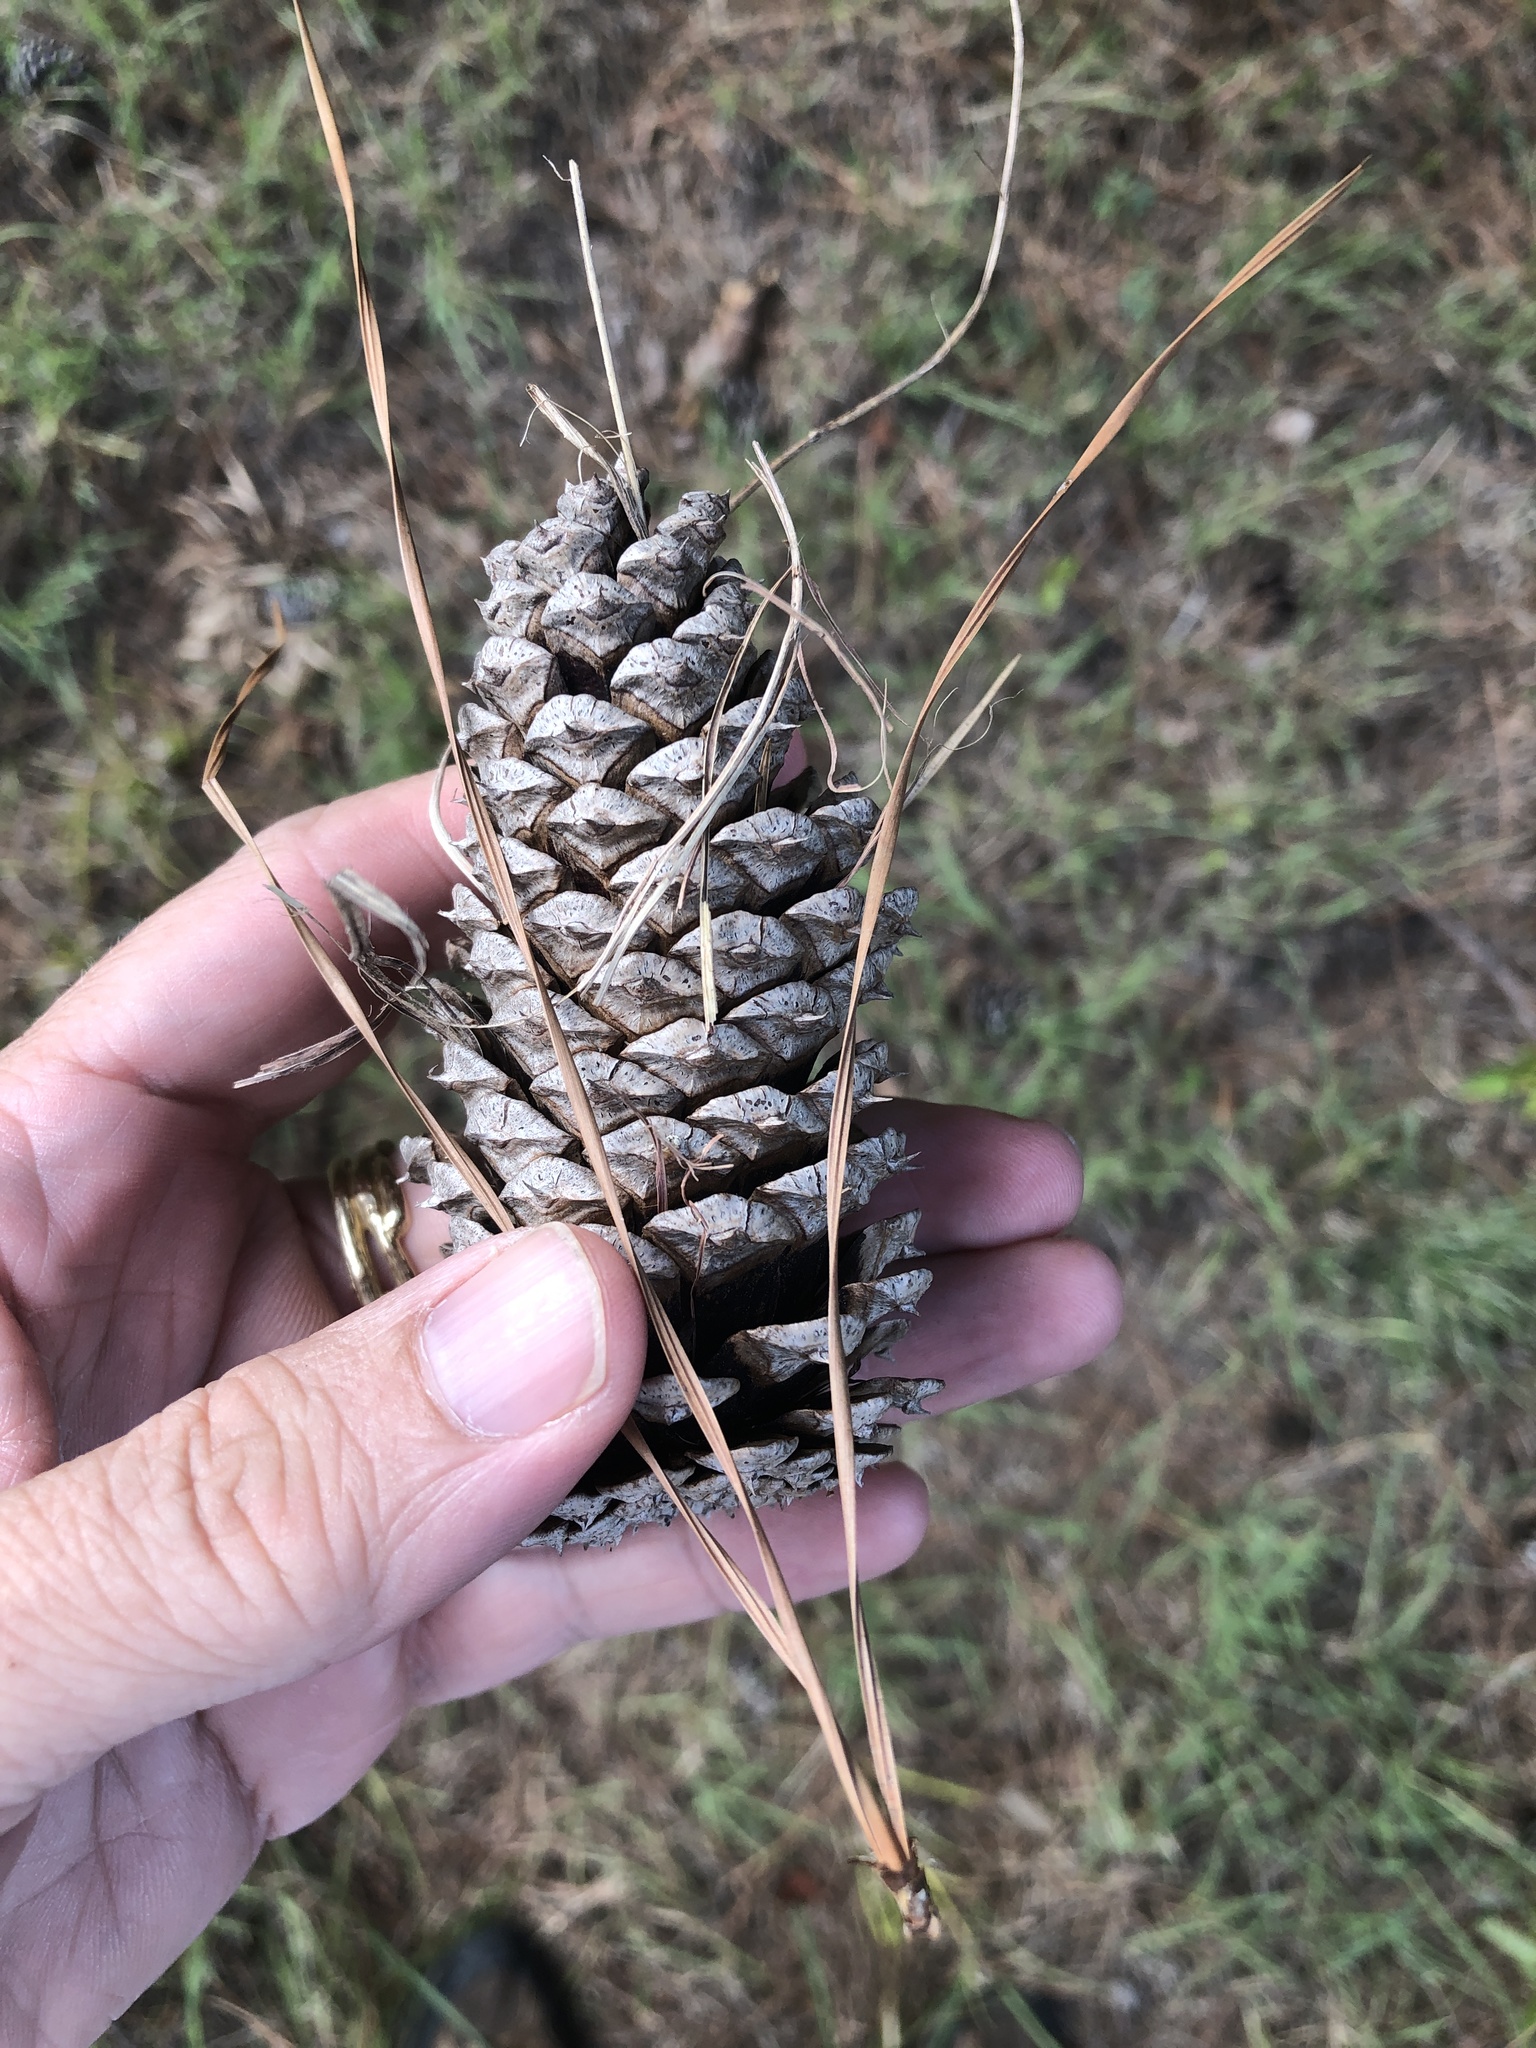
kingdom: Plantae
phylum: Tracheophyta
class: Pinopsida
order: Pinales
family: Pinaceae
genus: Pinus
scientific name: Pinus taeda
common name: Loblolly pine
